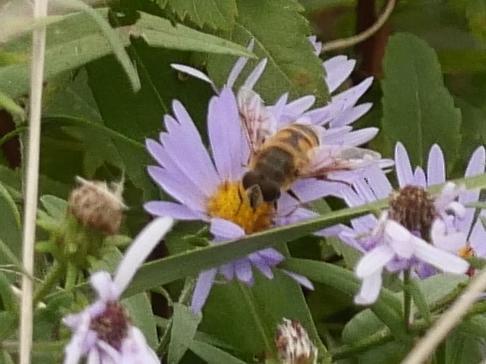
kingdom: Animalia
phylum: Arthropoda
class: Insecta
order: Diptera
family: Syrphidae
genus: Eristalis
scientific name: Eristalis tenax
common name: Drone fly
